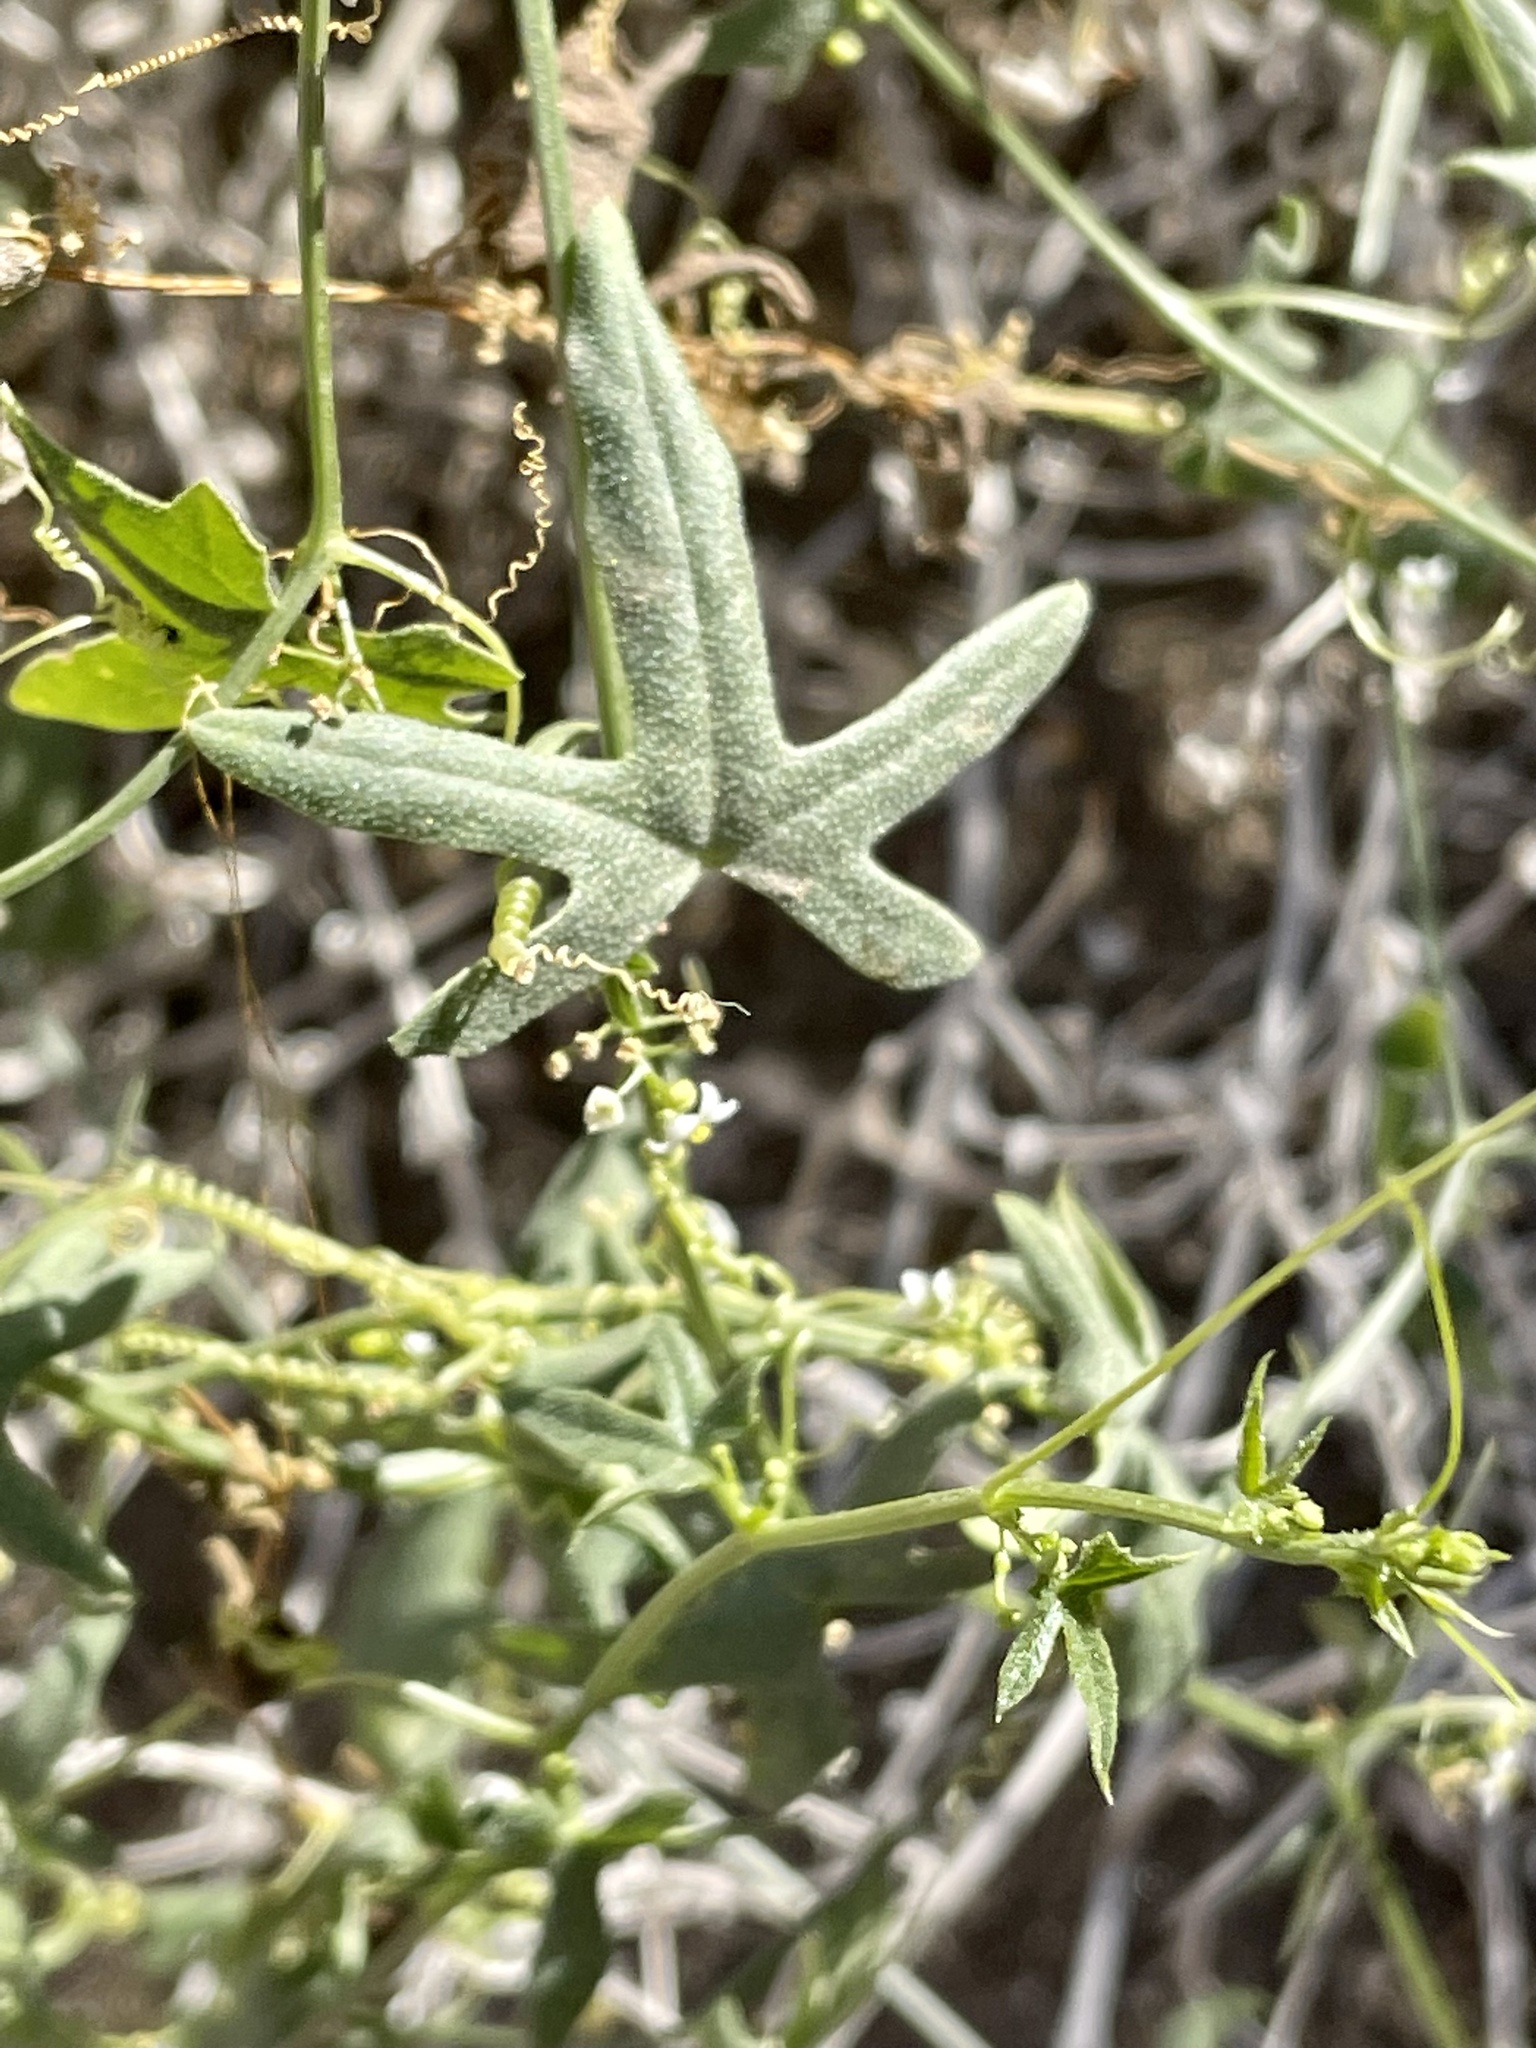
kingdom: Plantae
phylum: Tracheophyta
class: Magnoliopsida
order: Cucurbitales
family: Cucurbitaceae
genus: Echinopepon
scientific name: Echinopepon bigelovii
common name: Desert starvine
